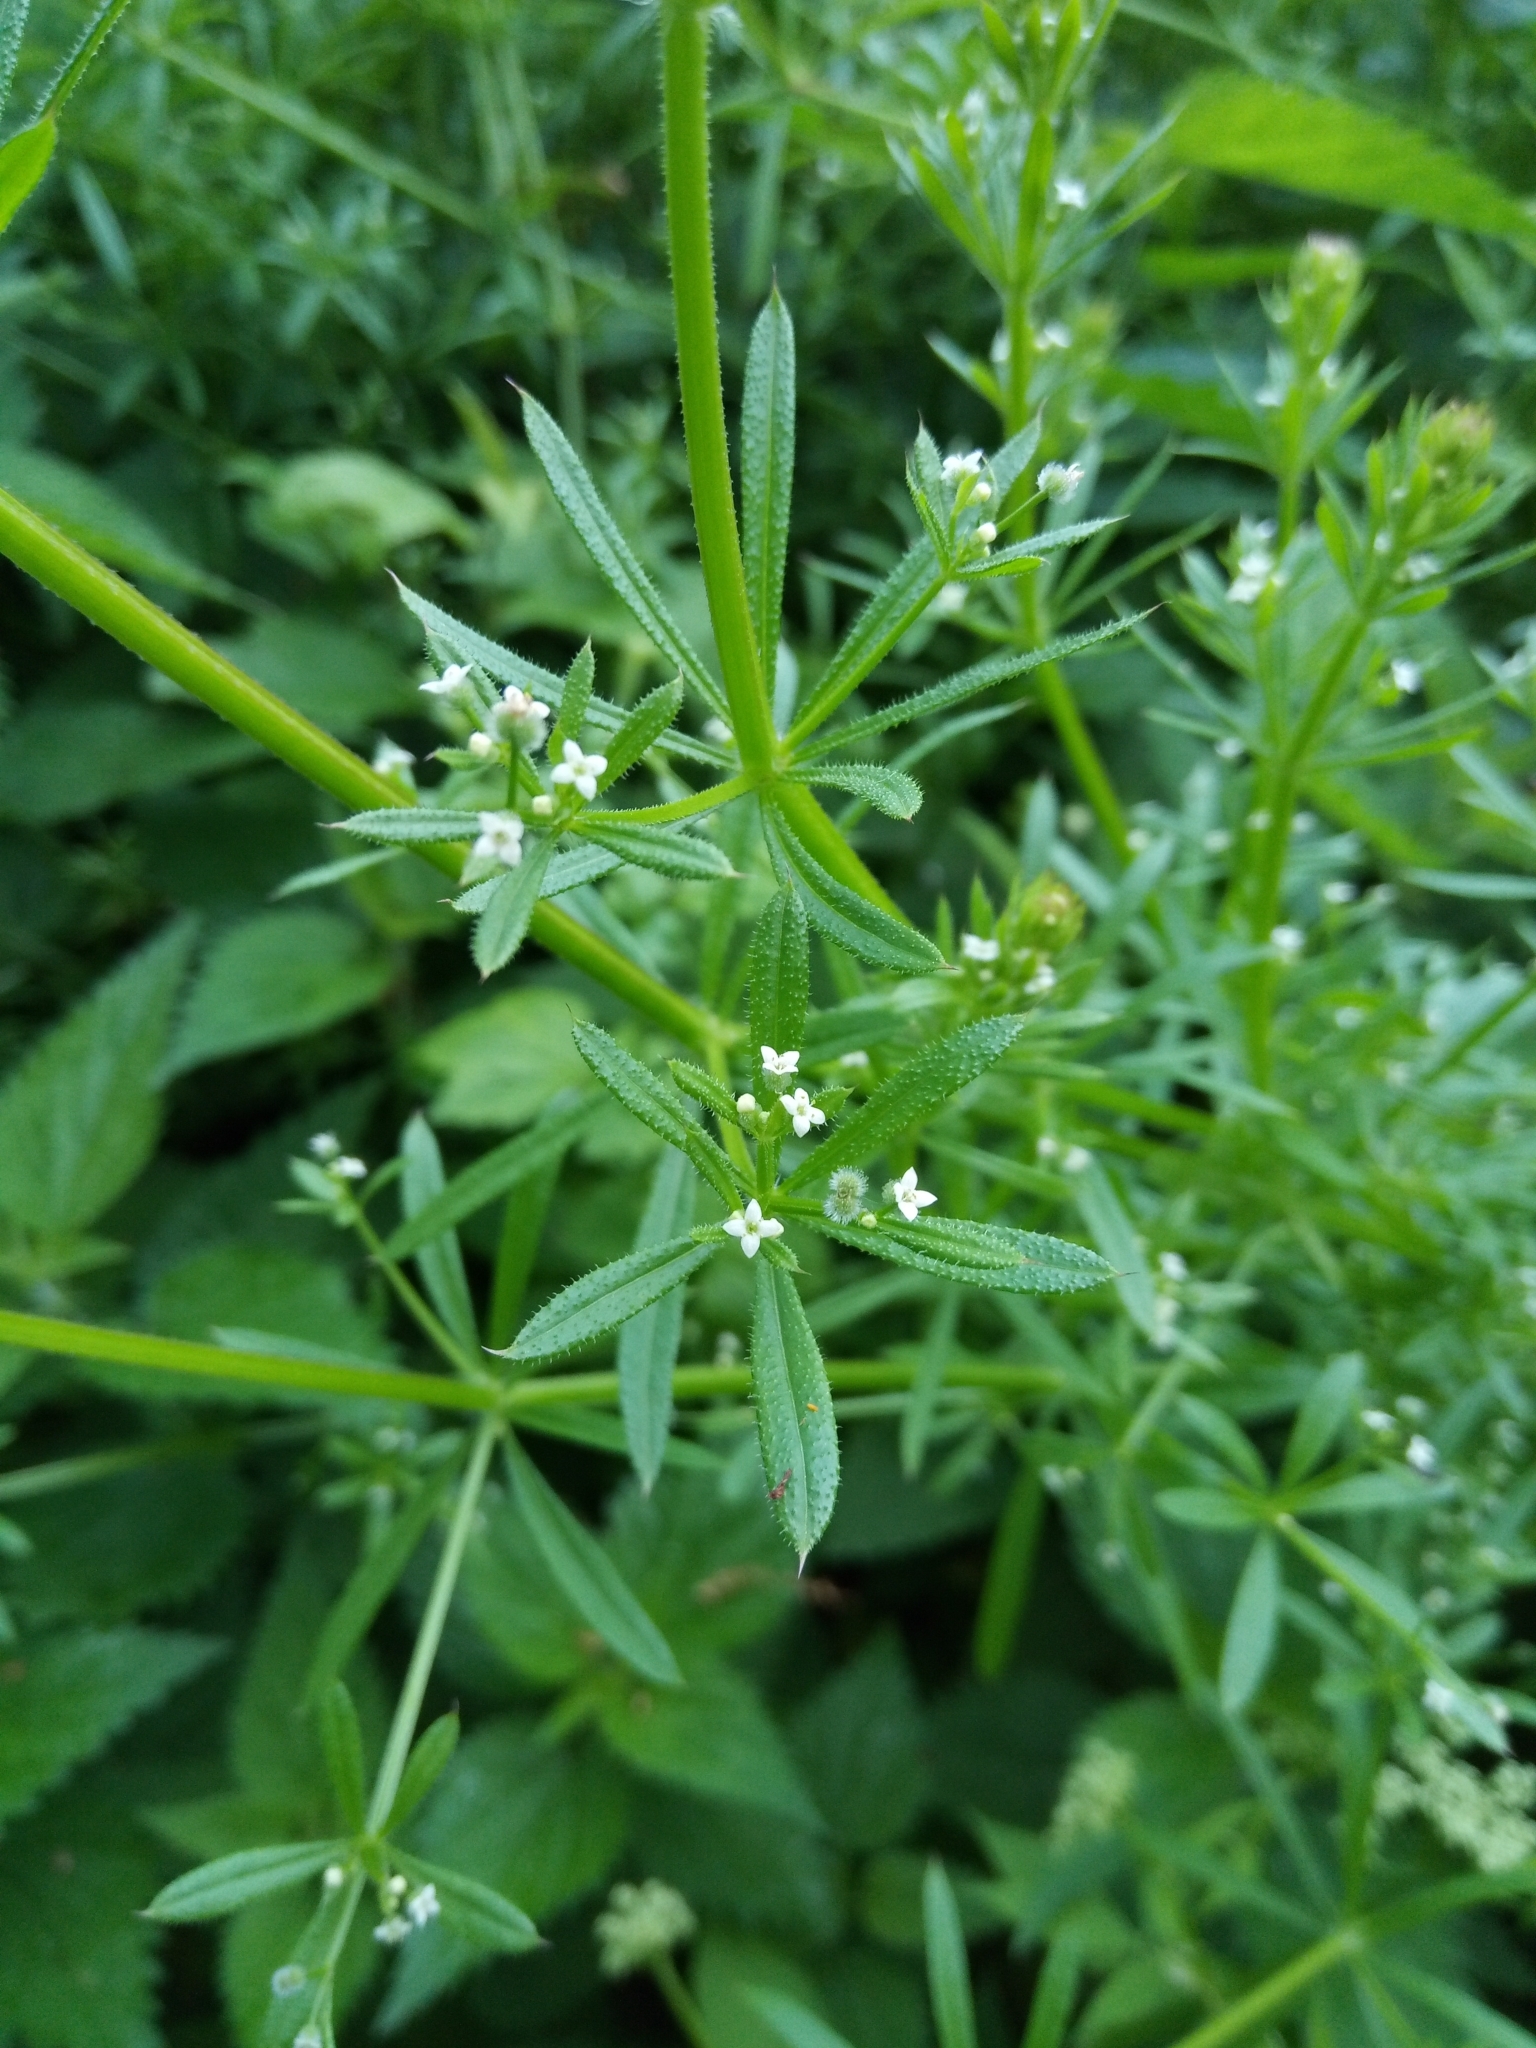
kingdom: Plantae
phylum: Tracheophyta
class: Magnoliopsida
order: Gentianales
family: Rubiaceae
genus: Galium
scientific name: Galium aparine
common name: Cleavers
